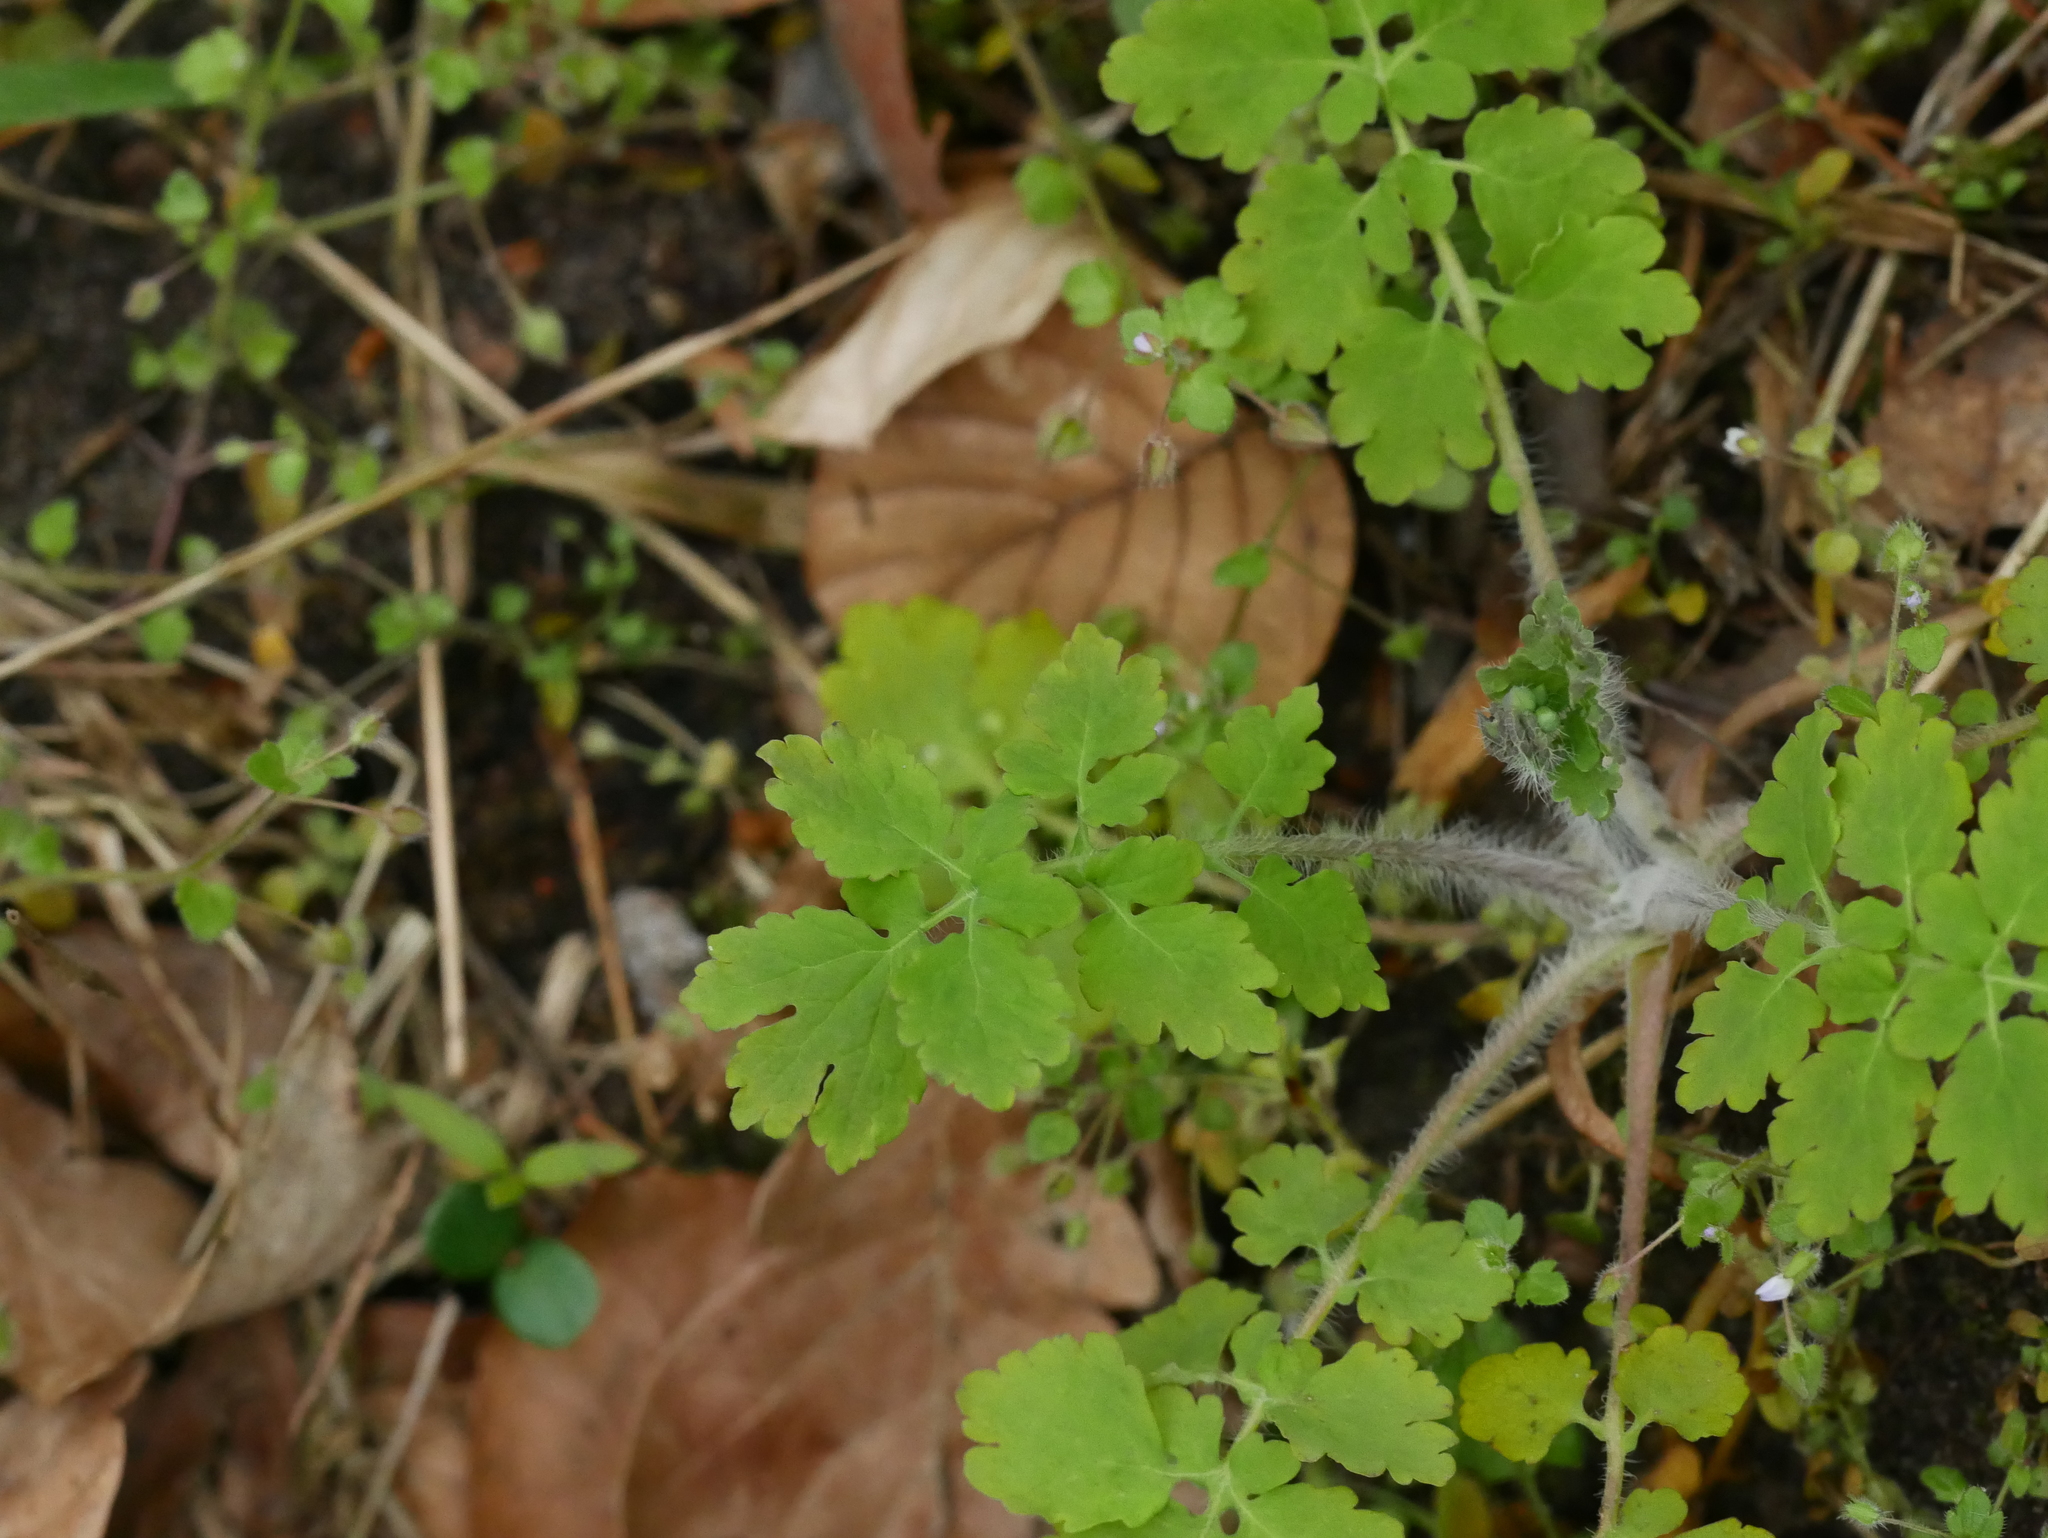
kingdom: Plantae
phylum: Tracheophyta
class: Magnoliopsida
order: Ranunculales
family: Papaveraceae
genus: Chelidonium
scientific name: Chelidonium majus
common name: Greater celandine
